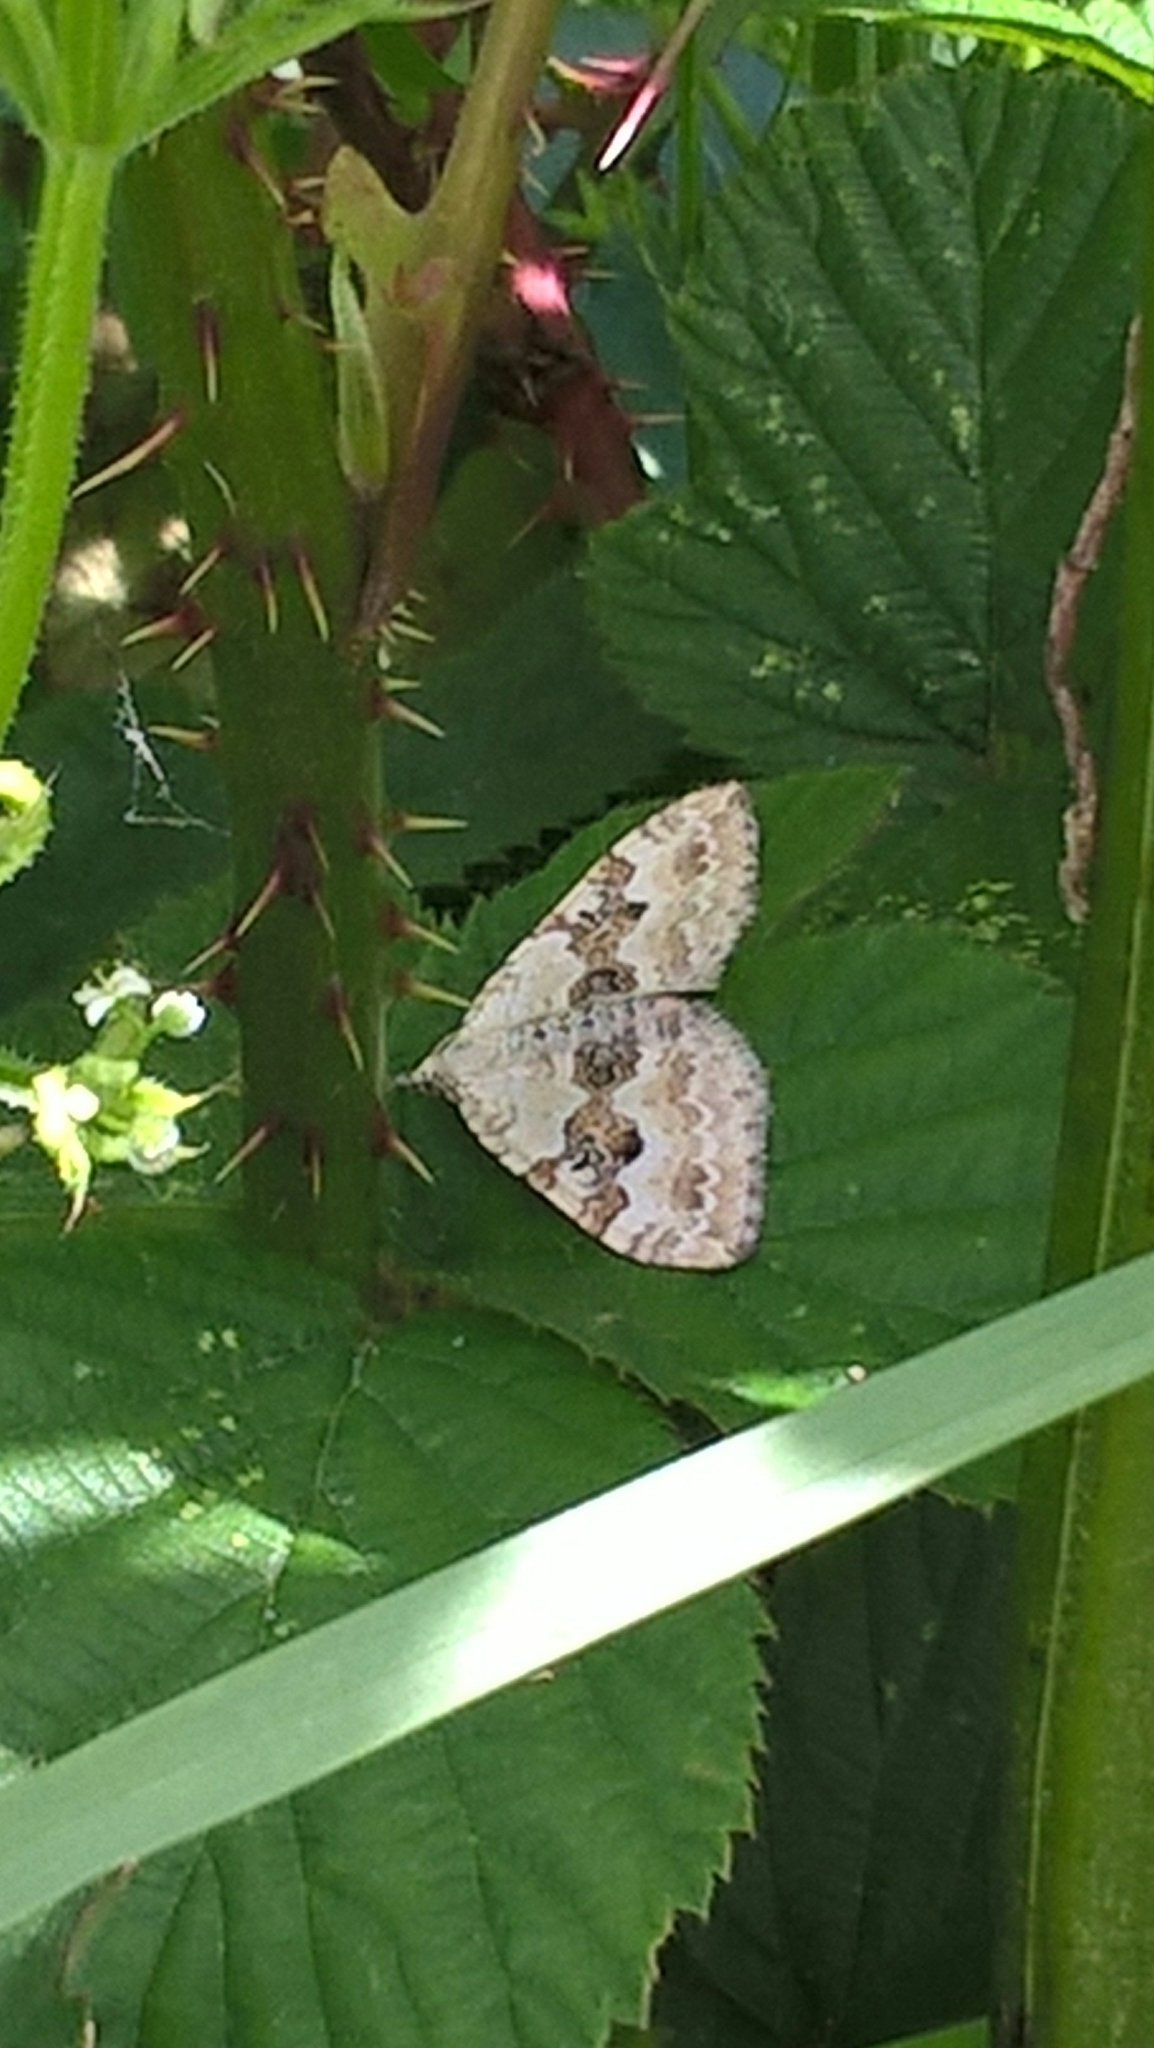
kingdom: Animalia
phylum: Arthropoda
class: Insecta
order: Lepidoptera
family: Geometridae
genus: Xanthorhoe
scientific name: Xanthorhoe montanata
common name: Silver-ground carpet
